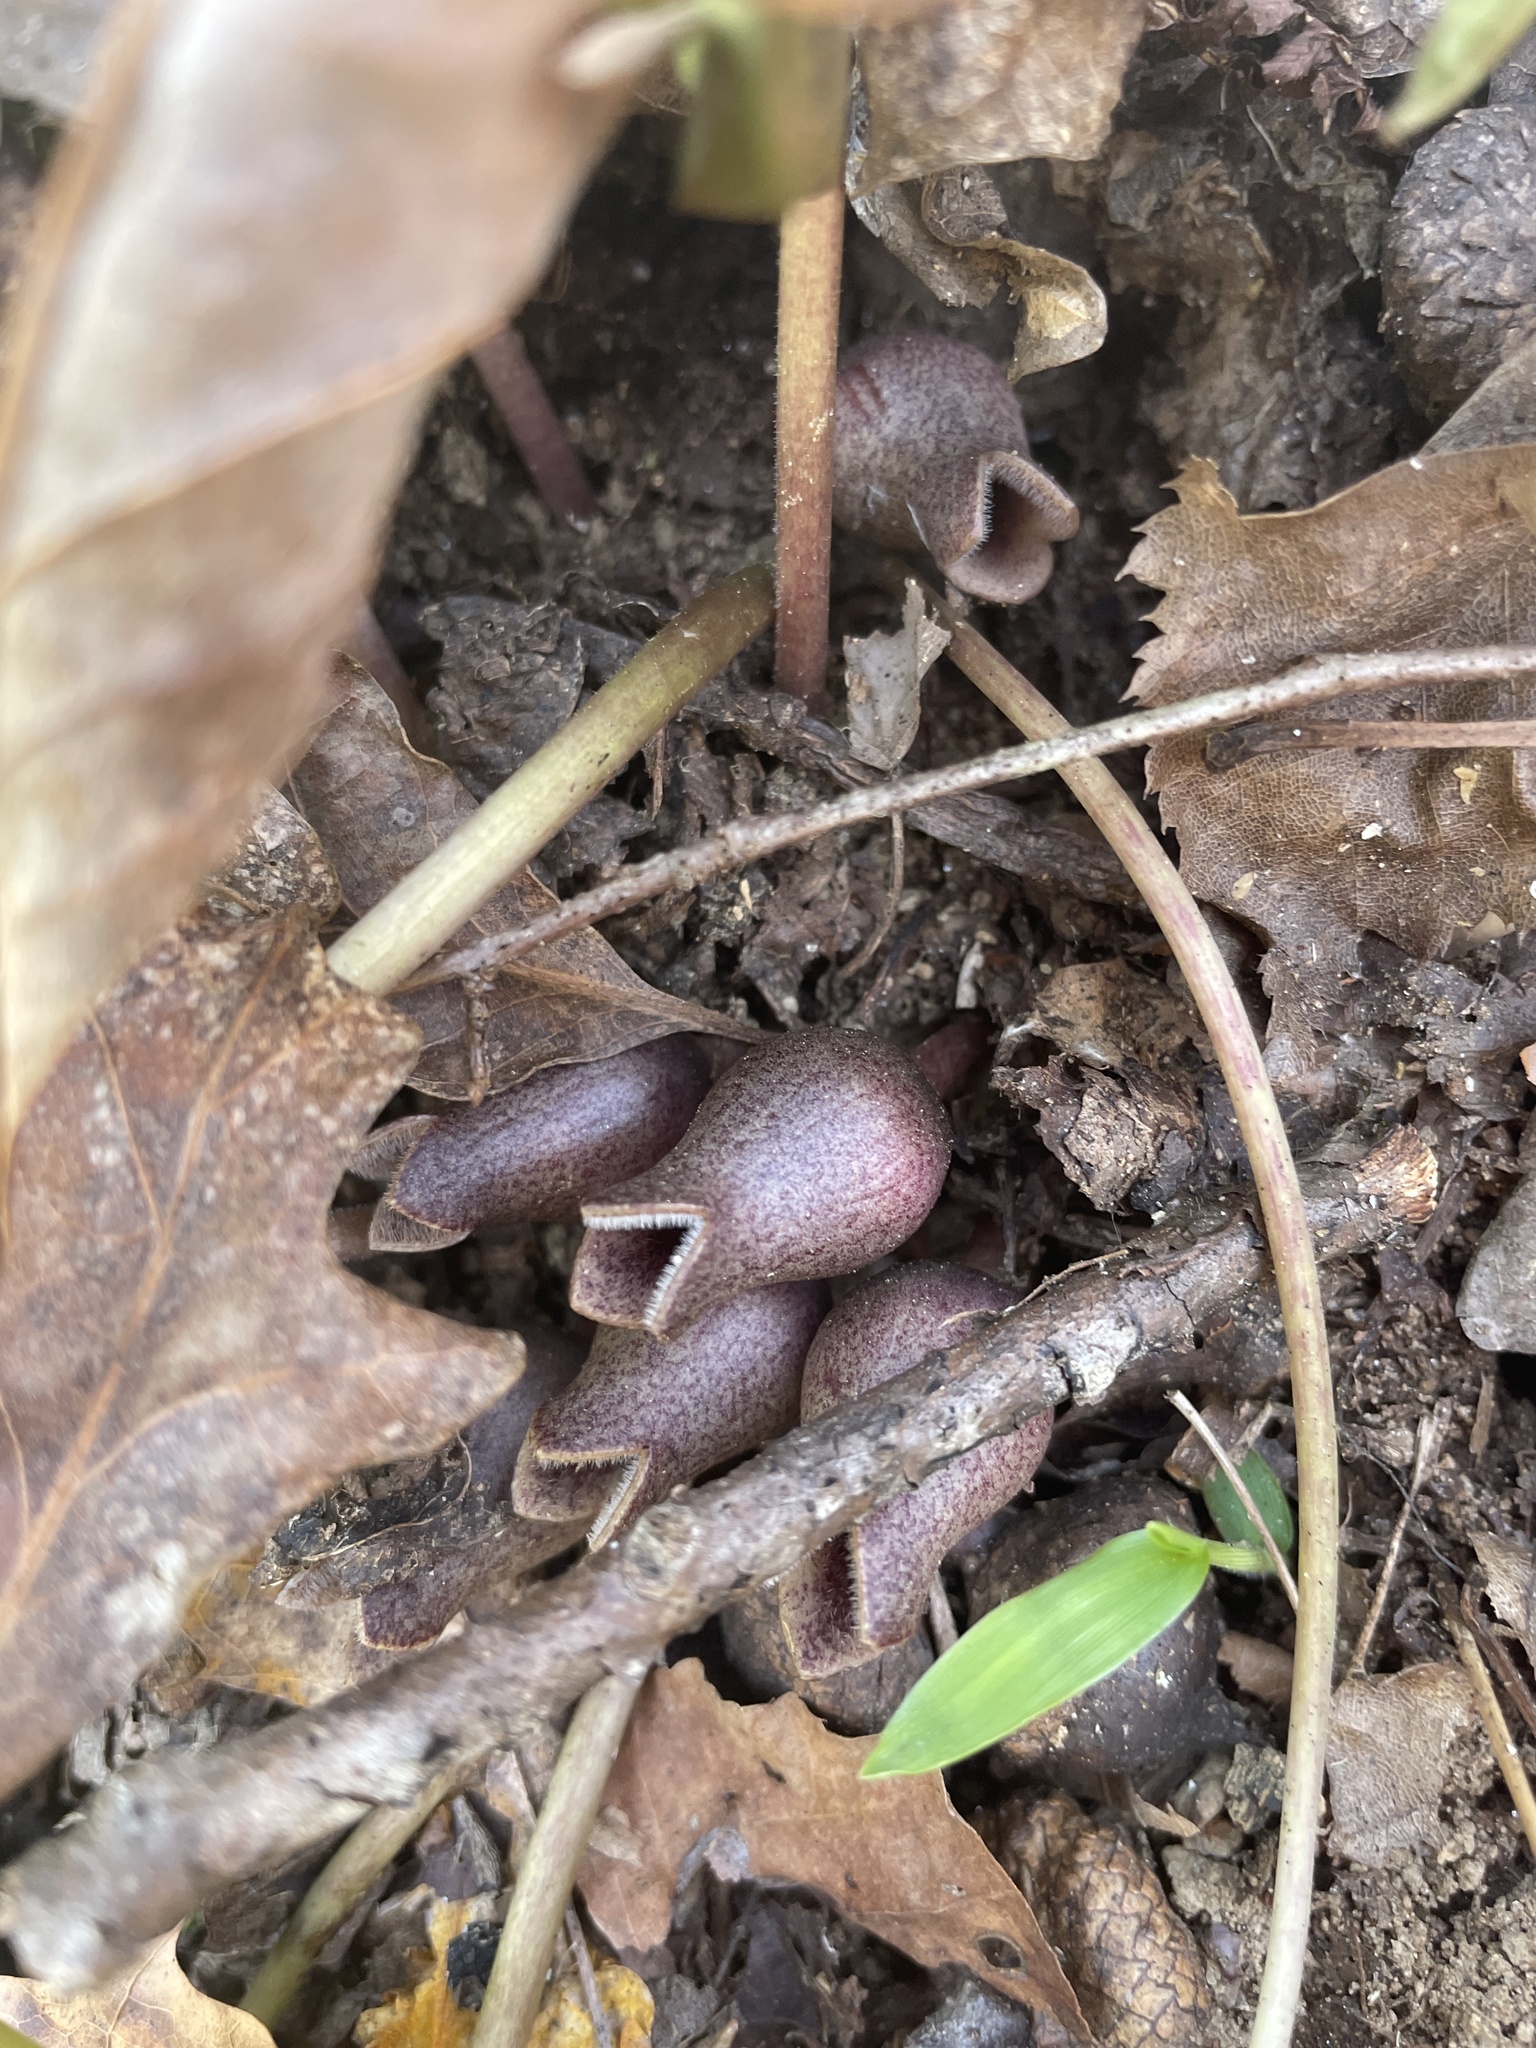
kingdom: Plantae
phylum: Tracheophyta
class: Magnoliopsida
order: Piperales
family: Aristolochiaceae
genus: Hexastylis
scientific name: Hexastylis arifolia
